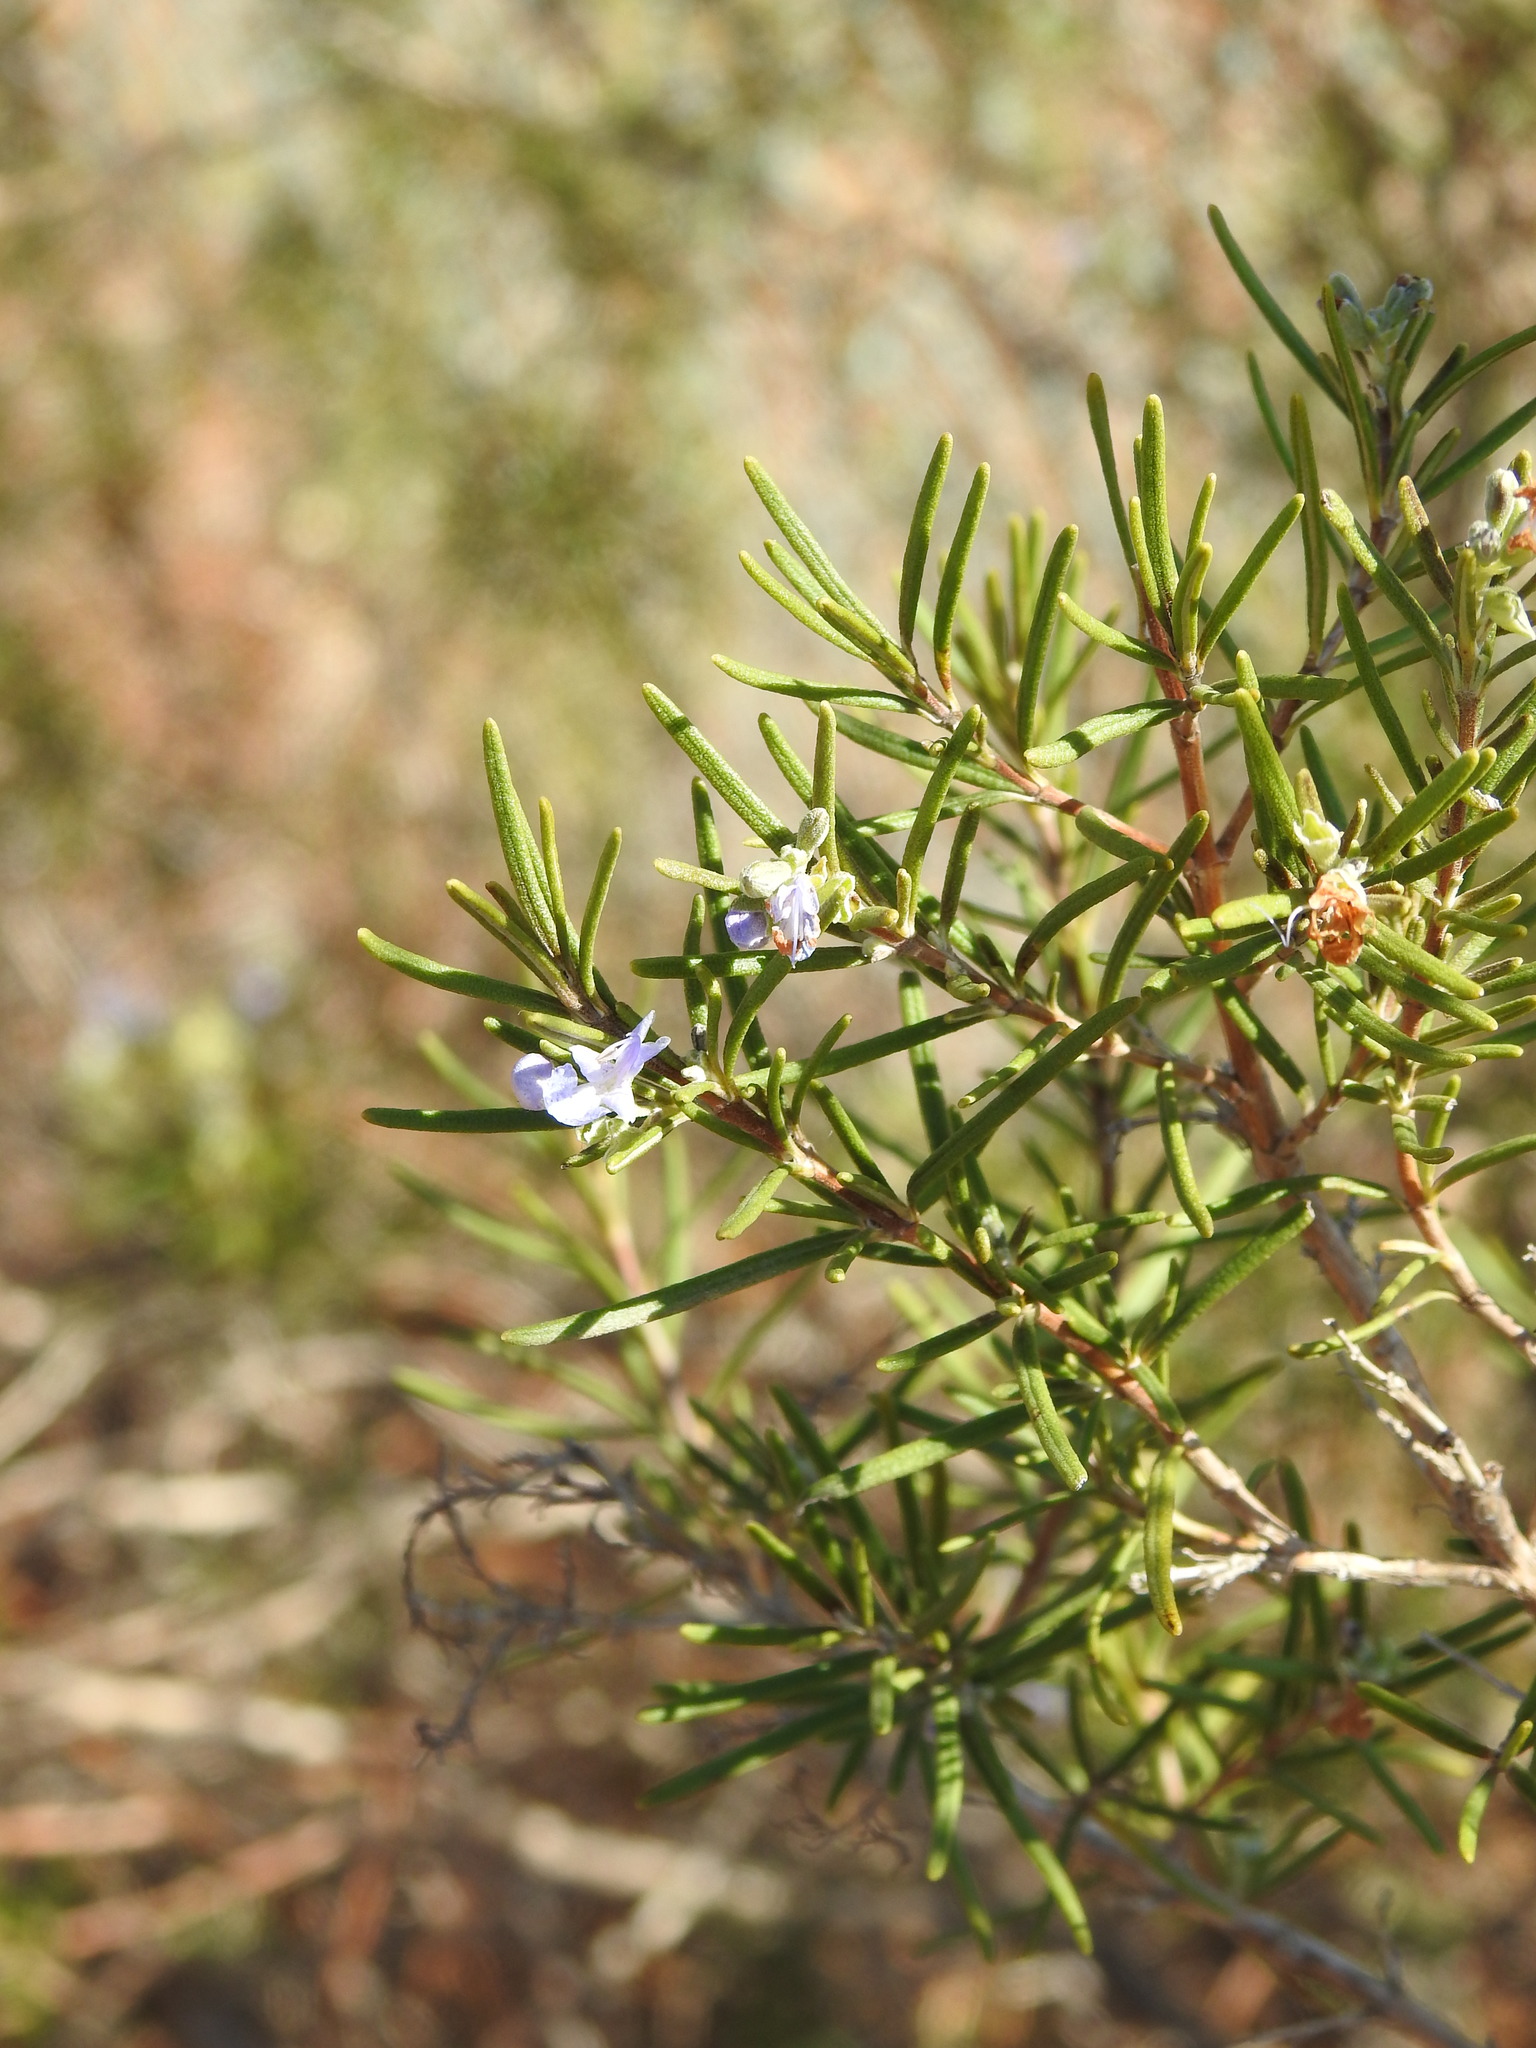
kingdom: Plantae
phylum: Tracheophyta
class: Magnoliopsida
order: Lamiales
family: Lamiaceae
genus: Salvia
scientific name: Salvia rosmarinus
